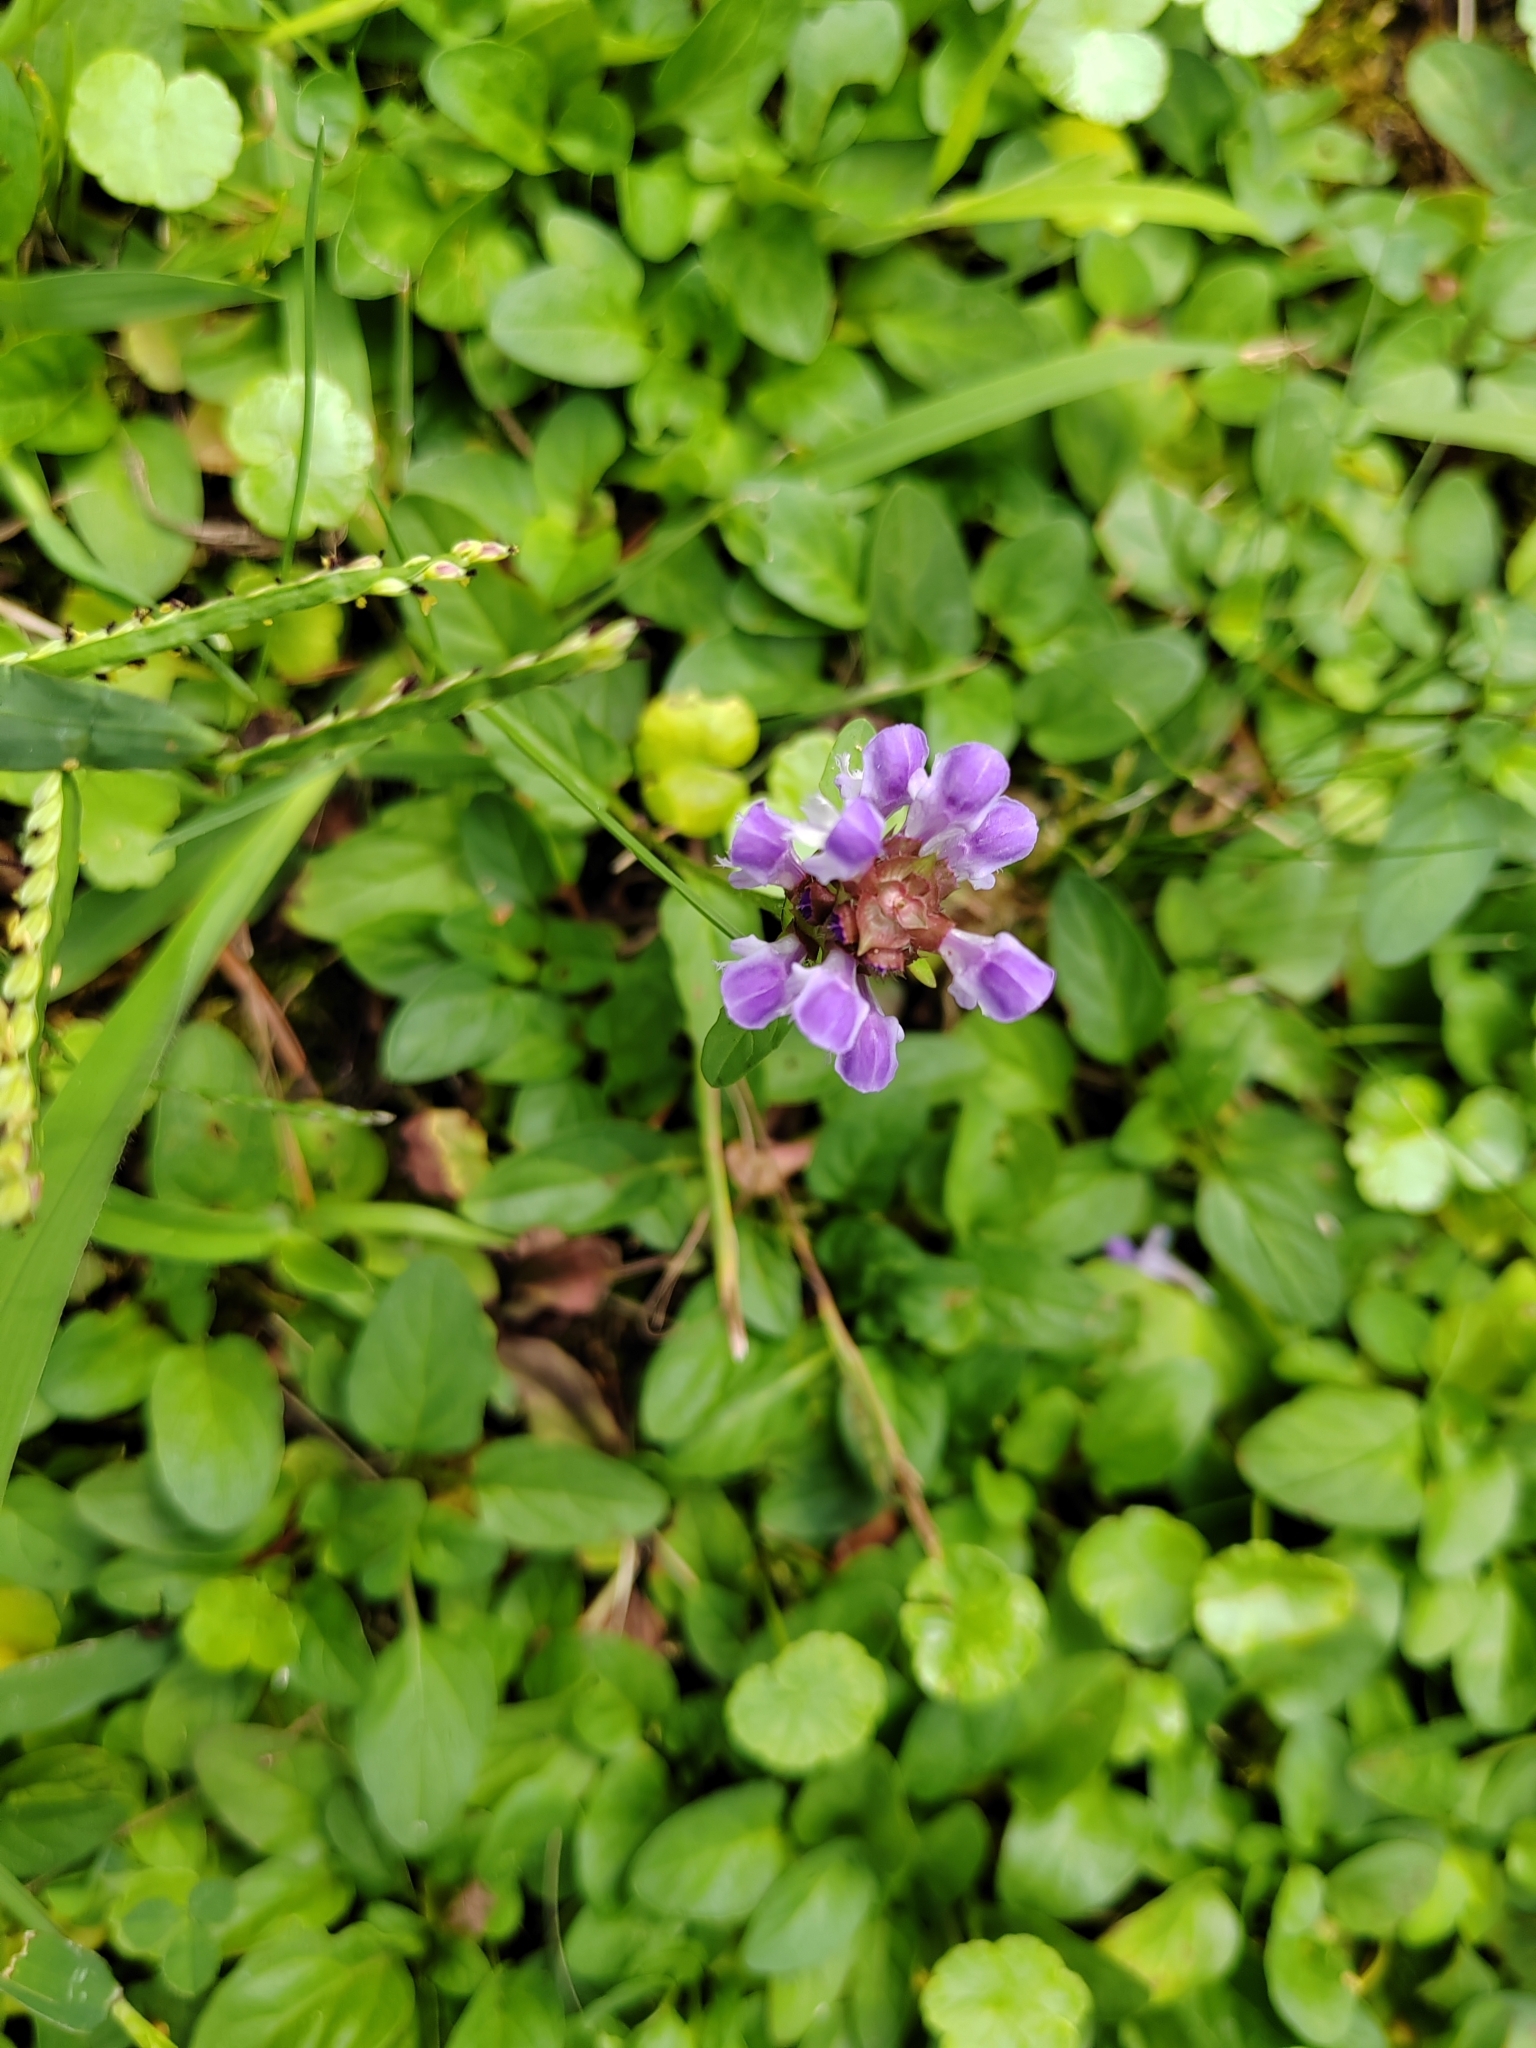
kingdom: Plantae
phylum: Tracheophyta
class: Magnoliopsida
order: Lamiales
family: Lamiaceae
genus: Prunella
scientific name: Prunella vulgaris
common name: Heal-all
